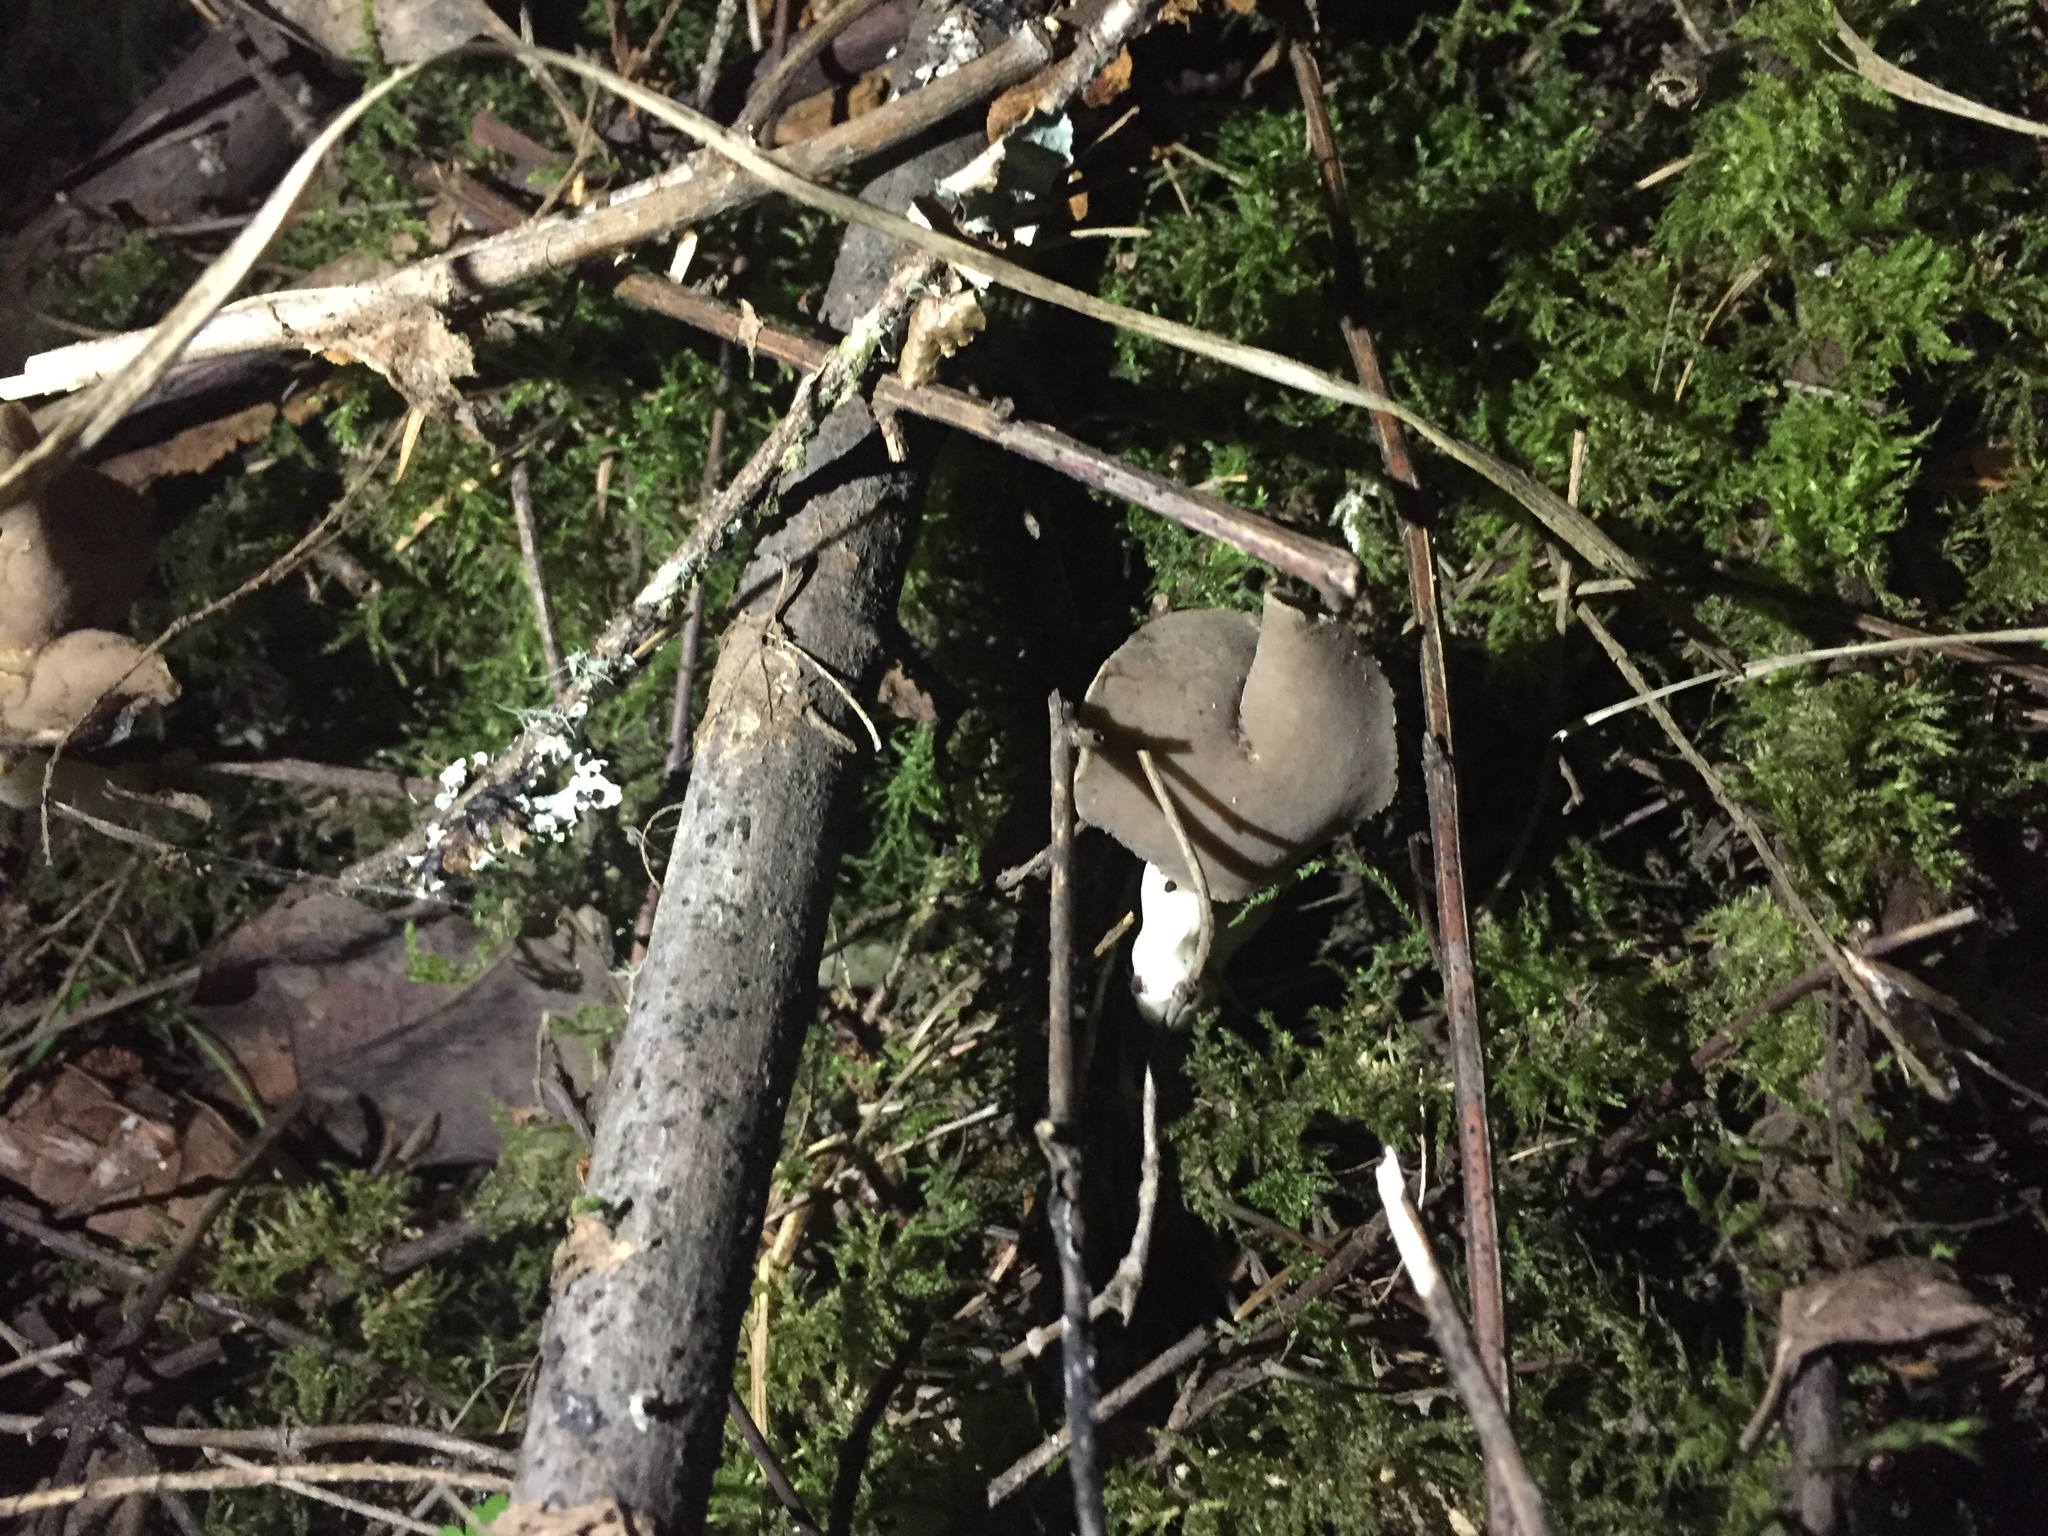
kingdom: Fungi
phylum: Ascomycota
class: Pezizomycetes
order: Pezizales
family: Helvellaceae
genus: Helvella
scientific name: Helvella compressa
